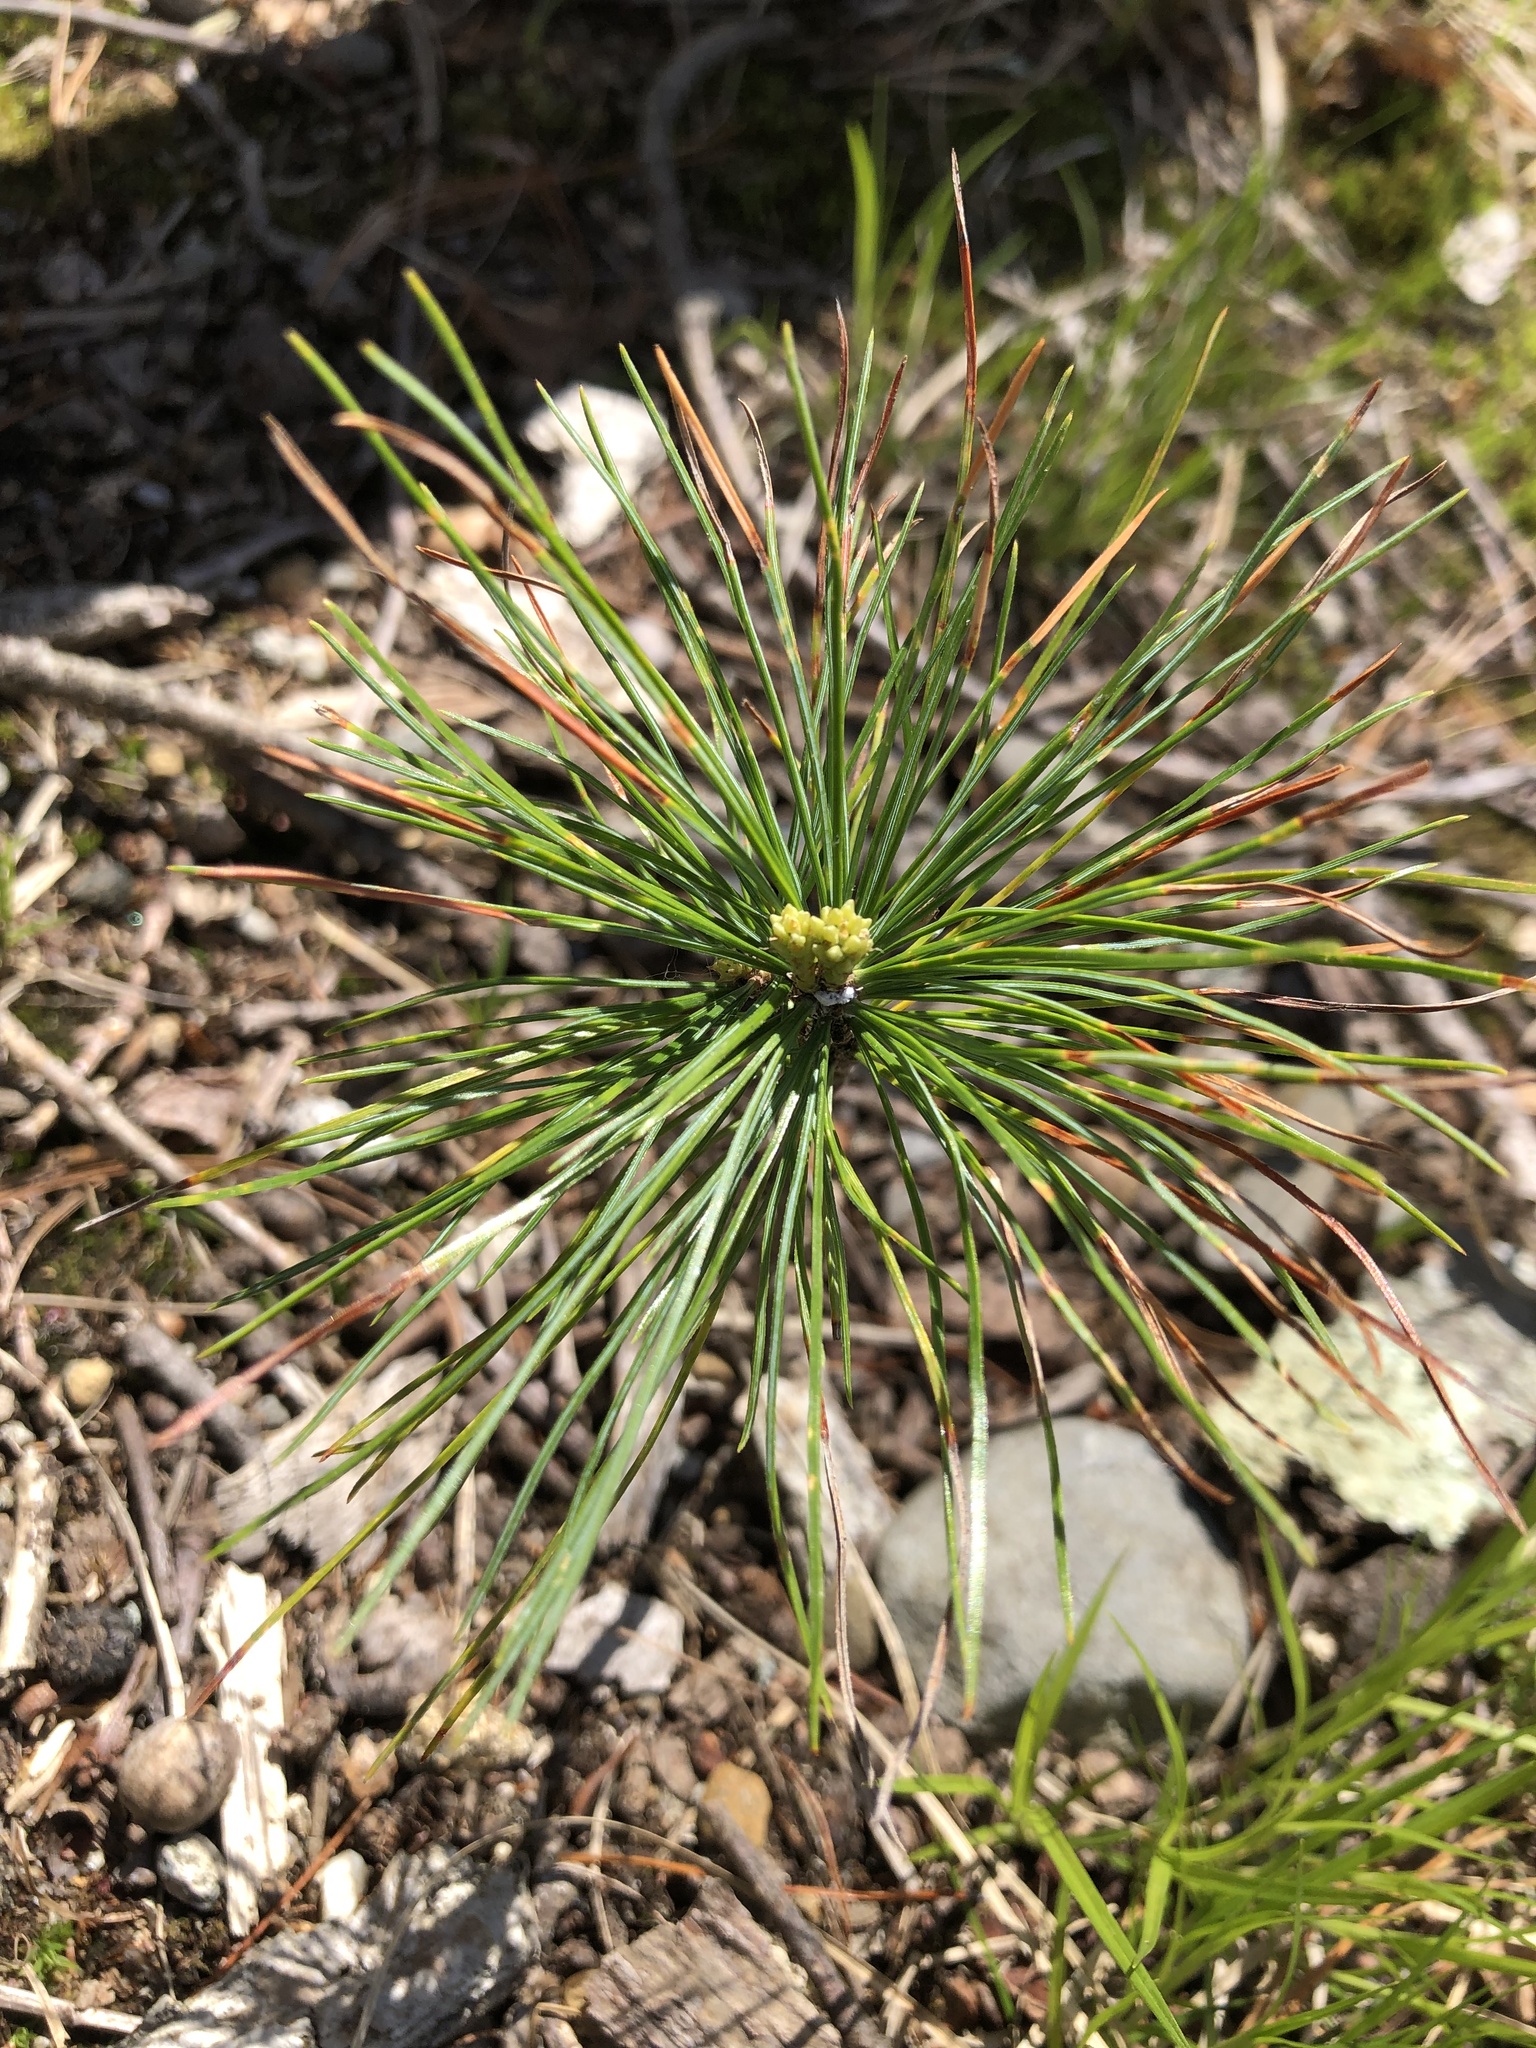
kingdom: Plantae
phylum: Tracheophyta
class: Pinopsida
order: Pinales
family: Pinaceae
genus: Pinus
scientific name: Pinus strobus
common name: Weymouth pine
